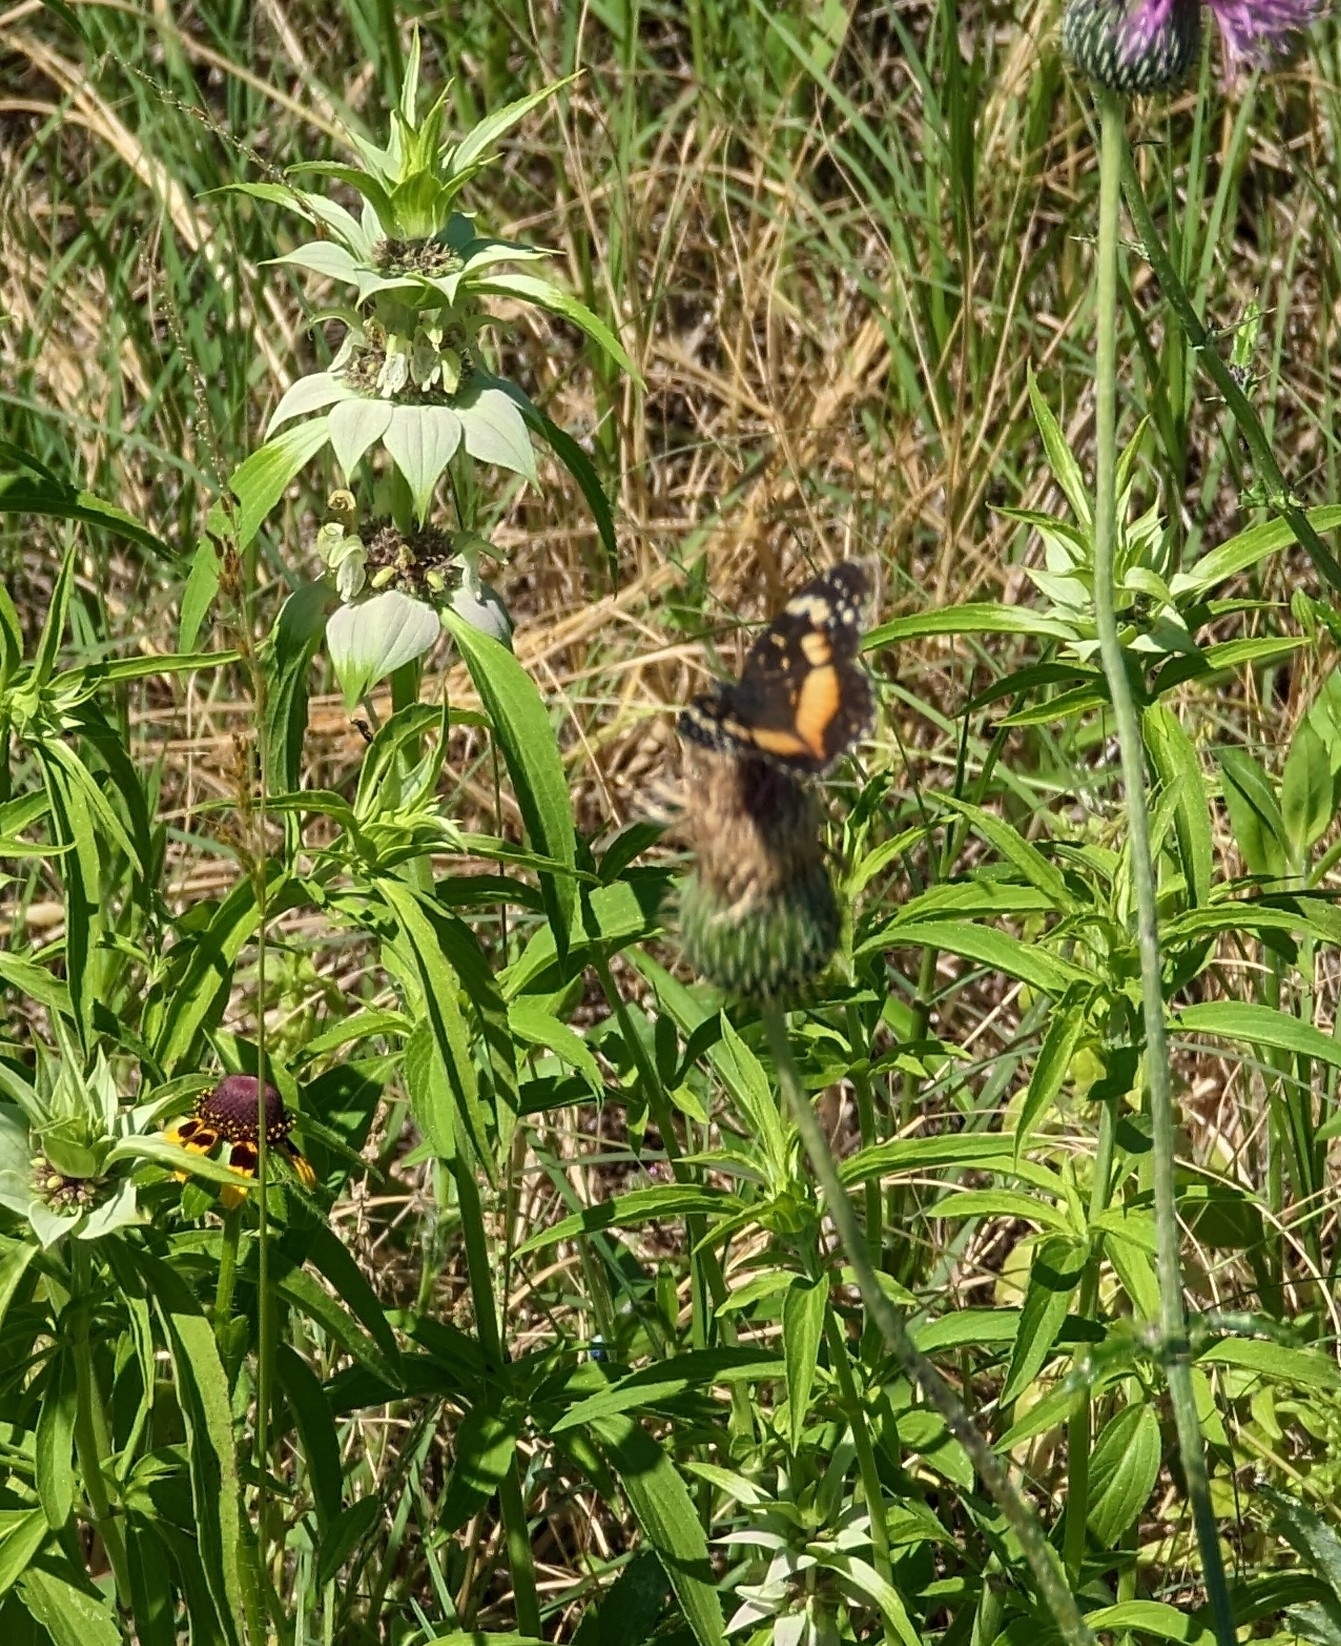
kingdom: Animalia
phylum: Arthropoda
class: Insecta
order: Lepidoptera
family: Nymphalidae
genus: Chlosyne
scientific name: Chlosyne lacinia
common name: Bordered patch
